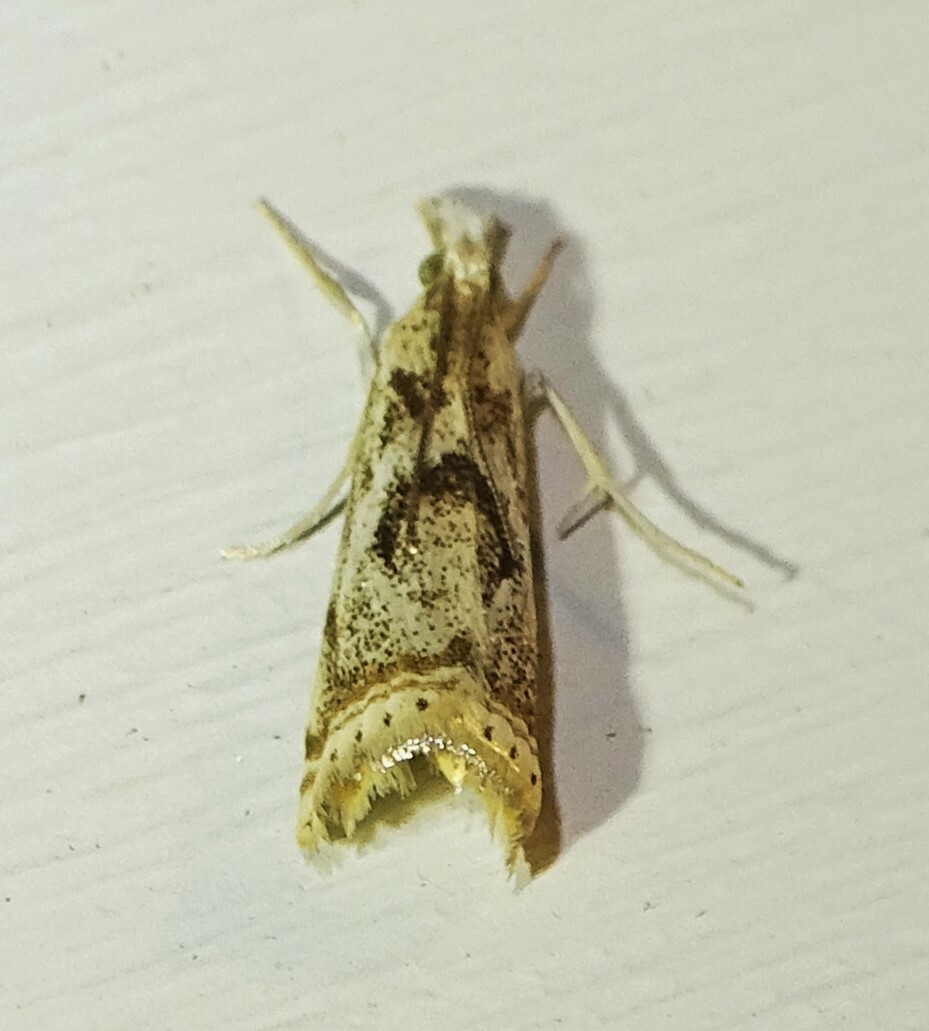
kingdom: Animalia
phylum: Arthropoda
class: Insecta
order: Lepidoptera
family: Crambidae
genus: Microcrambus
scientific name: Microcrambus elegans
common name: Elegant grass-veneer
